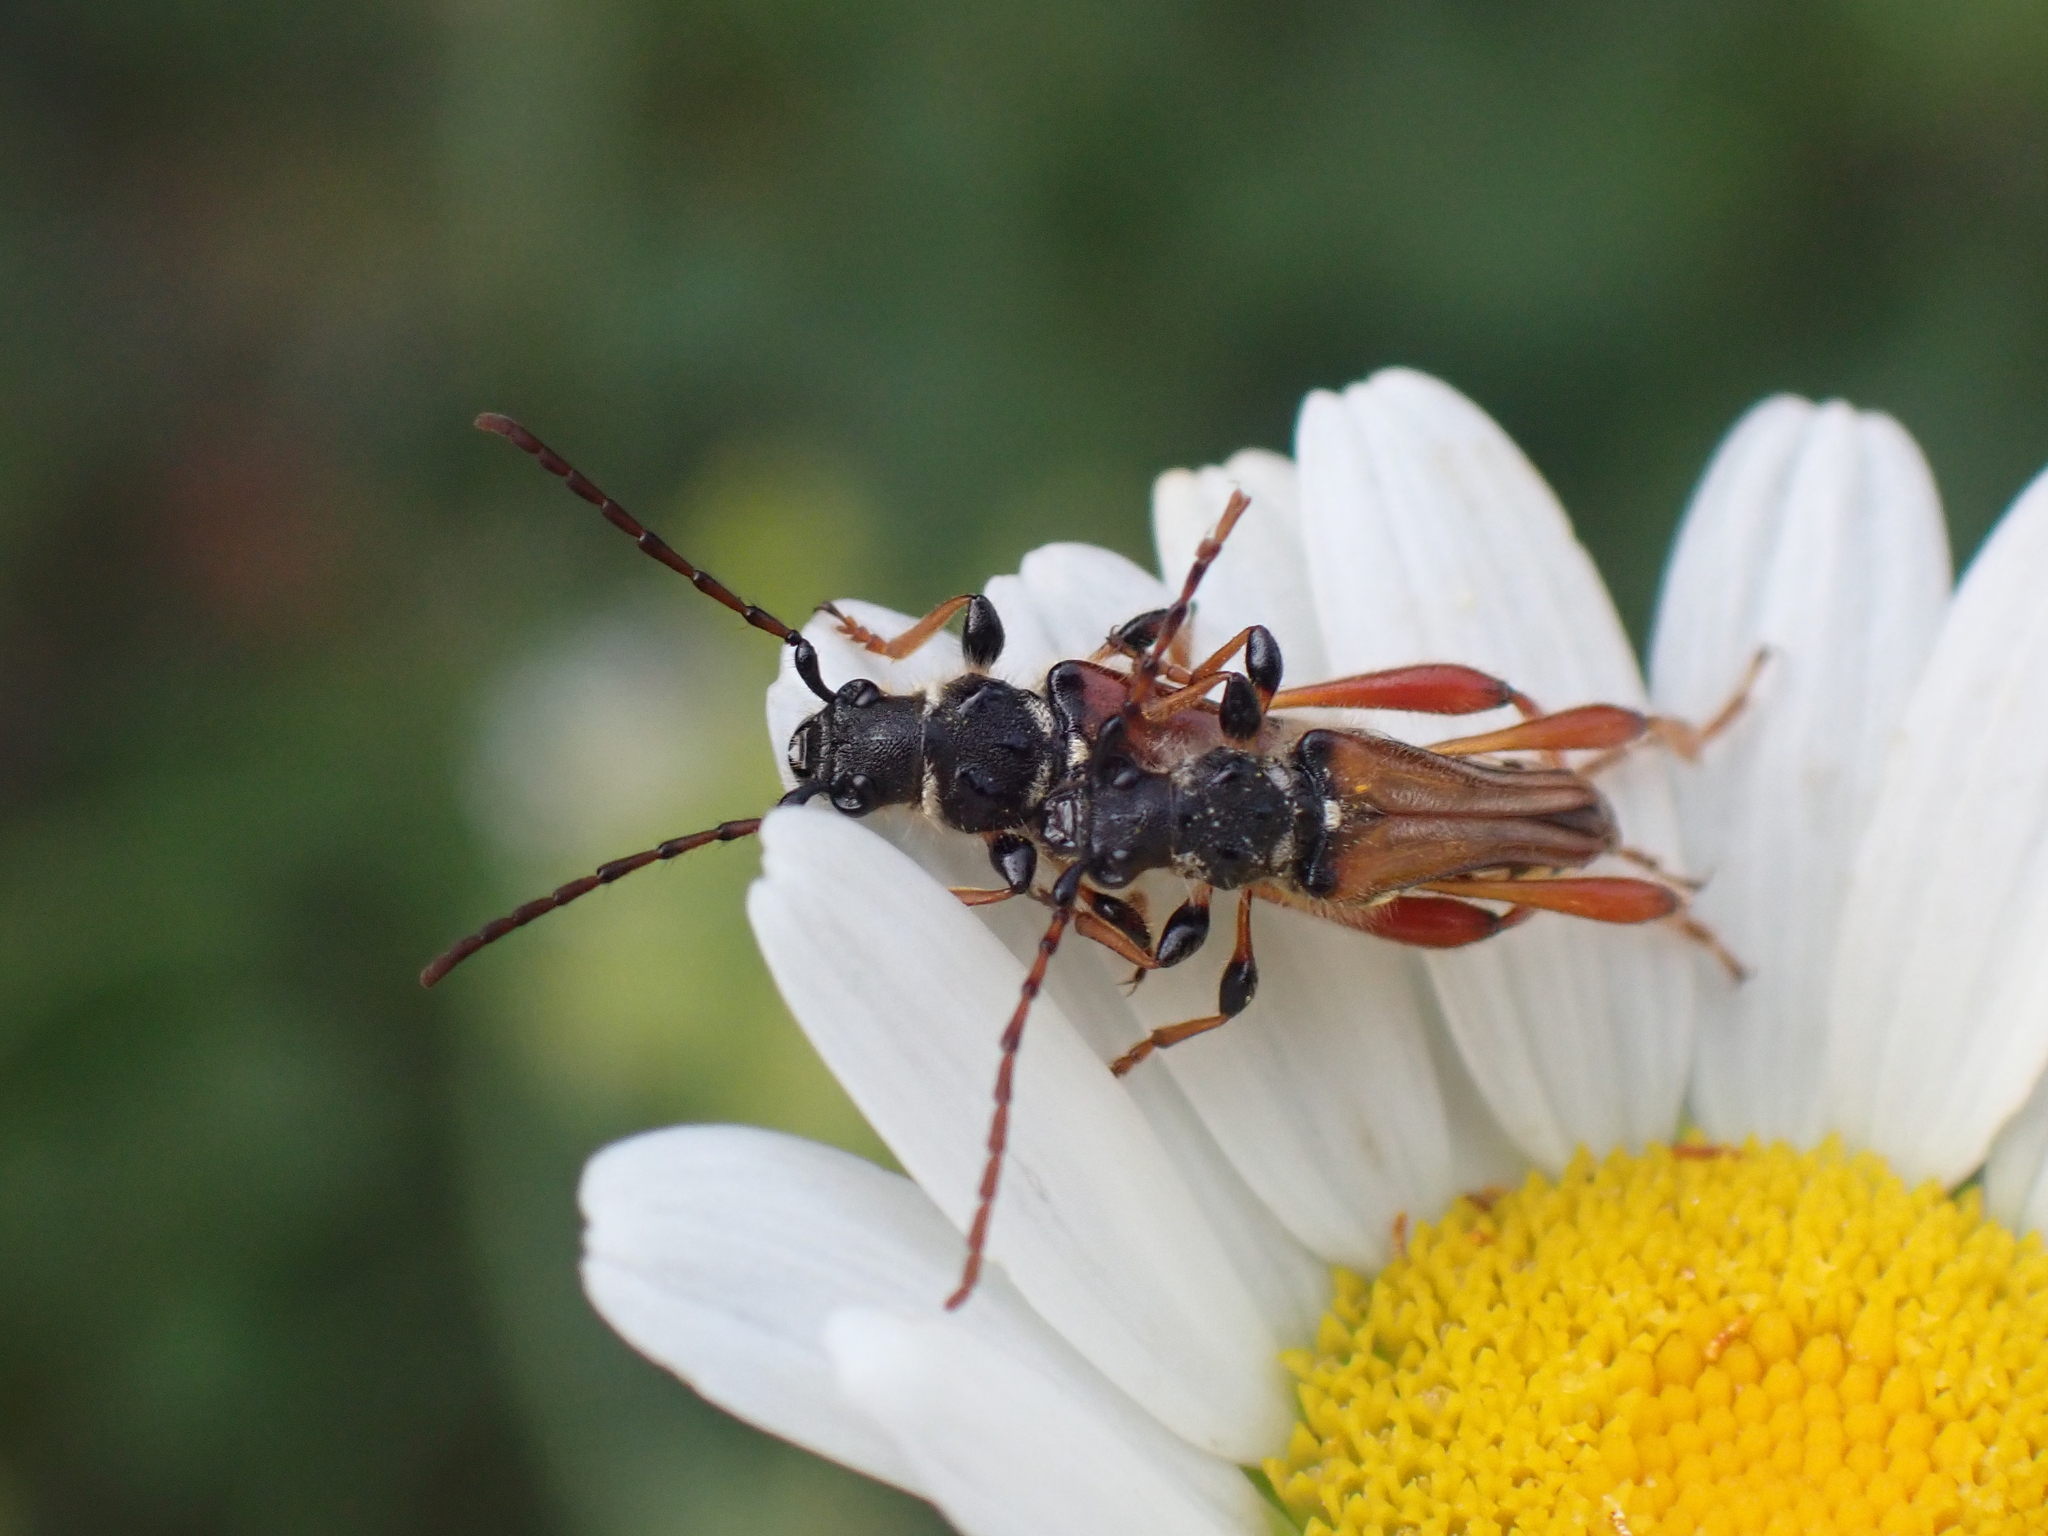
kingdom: Animalia
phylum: Arthropoda
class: Insecta
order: Coleoptera
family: Cerambycidae
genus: Stenopterus
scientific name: Stenopterus rufus
